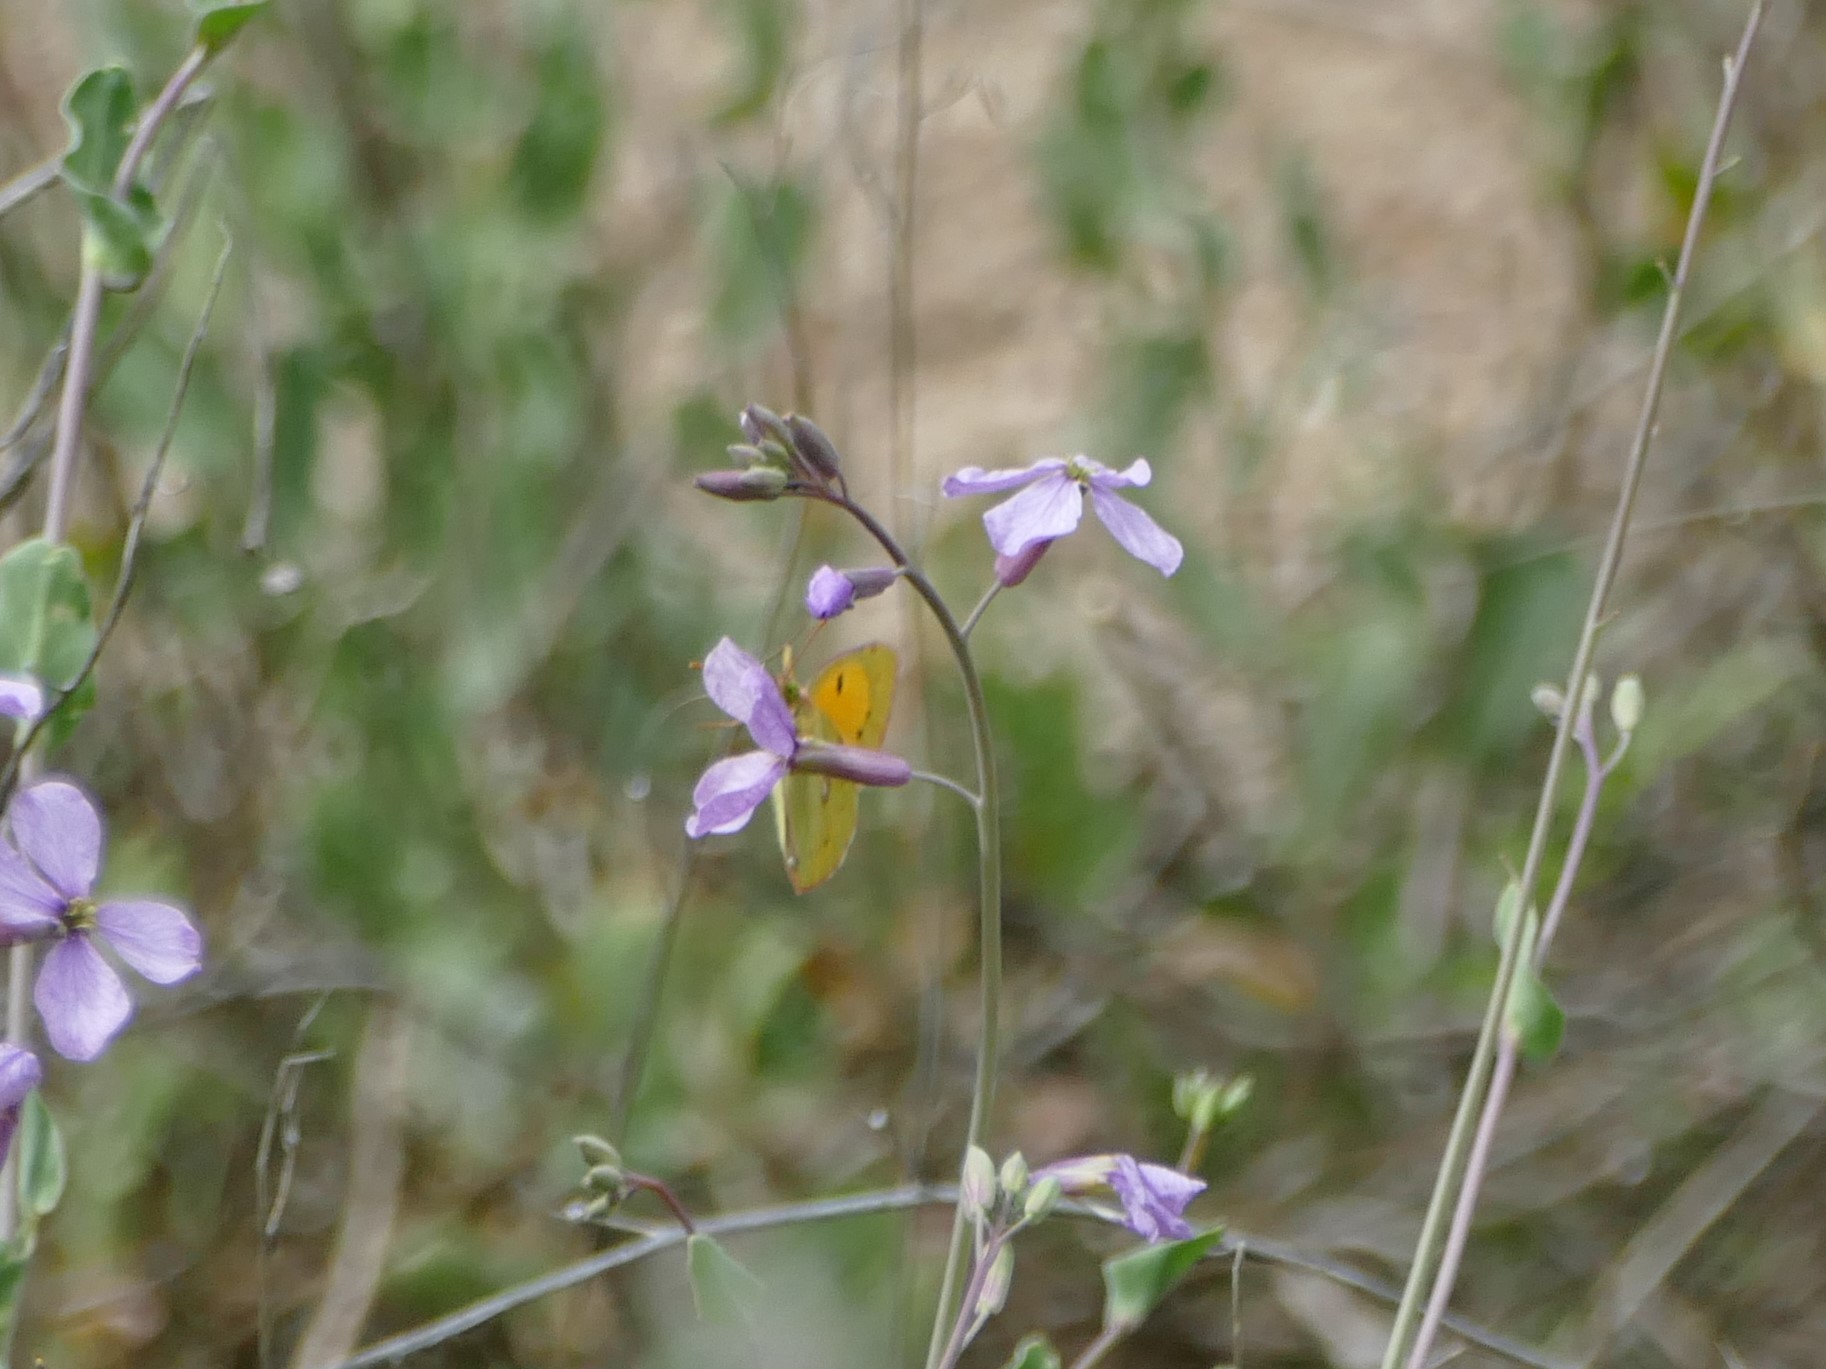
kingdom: Animalia
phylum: Arthropoda
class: Insecta
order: Lepidoptera
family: Pieridae
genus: Colias
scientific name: Colias croceus
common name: Clouded yellow
